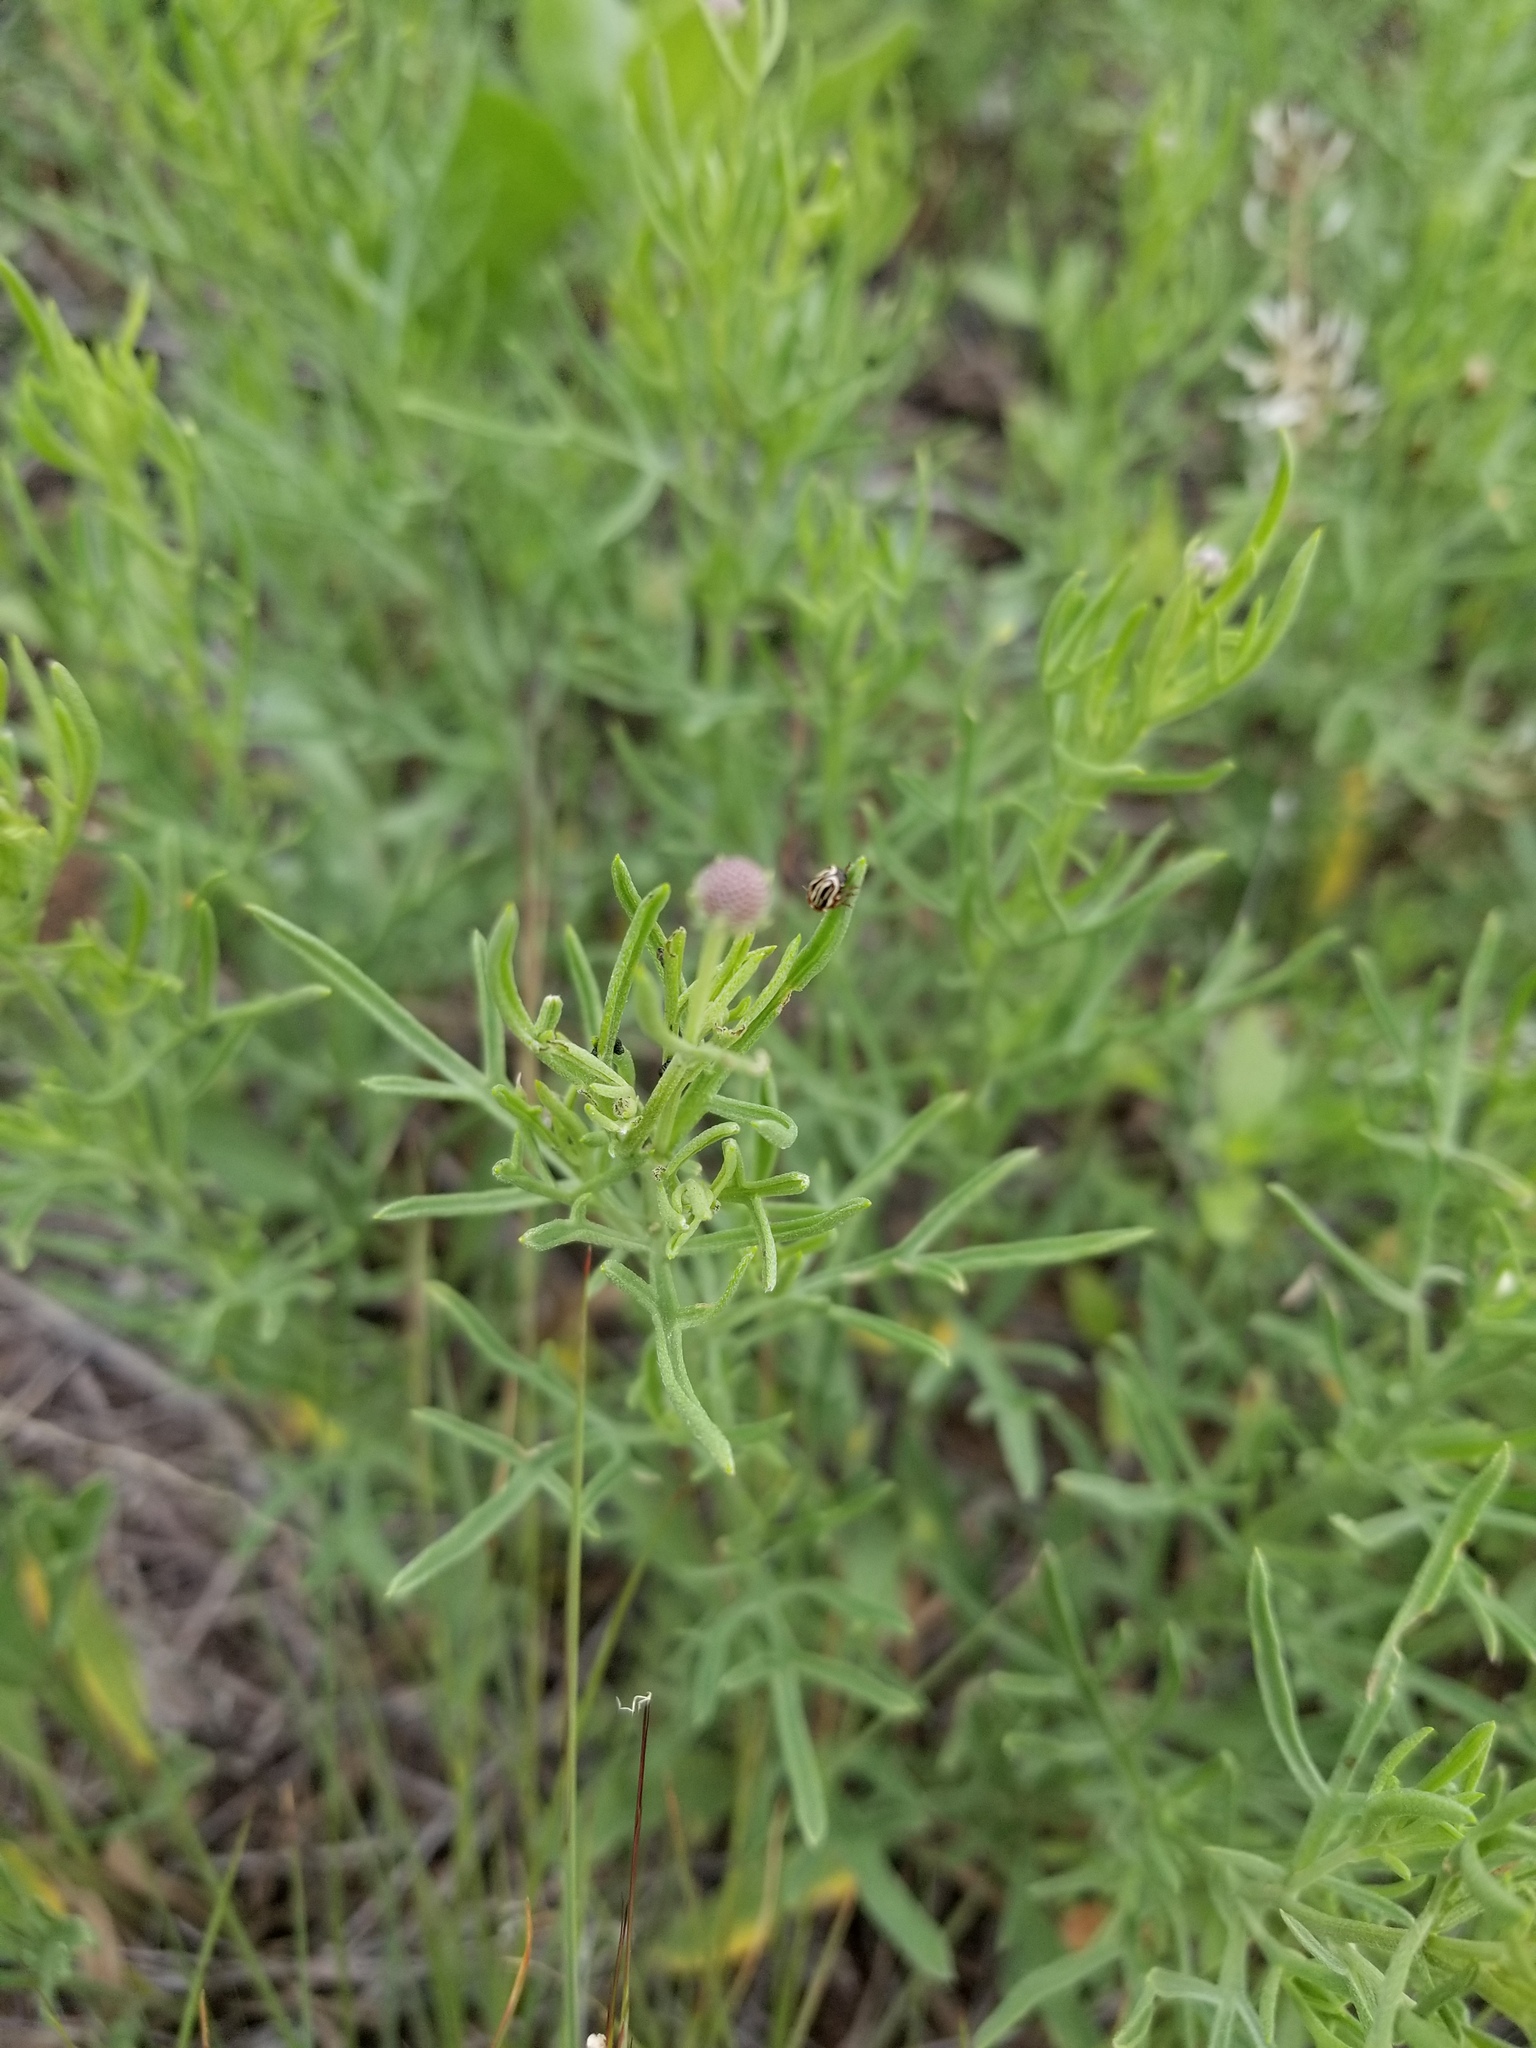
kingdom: Animalia
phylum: Arthropoda
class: Insecta
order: Coleoptera
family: Chrysomelidae
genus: Calligrapha
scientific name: Calligrapha
